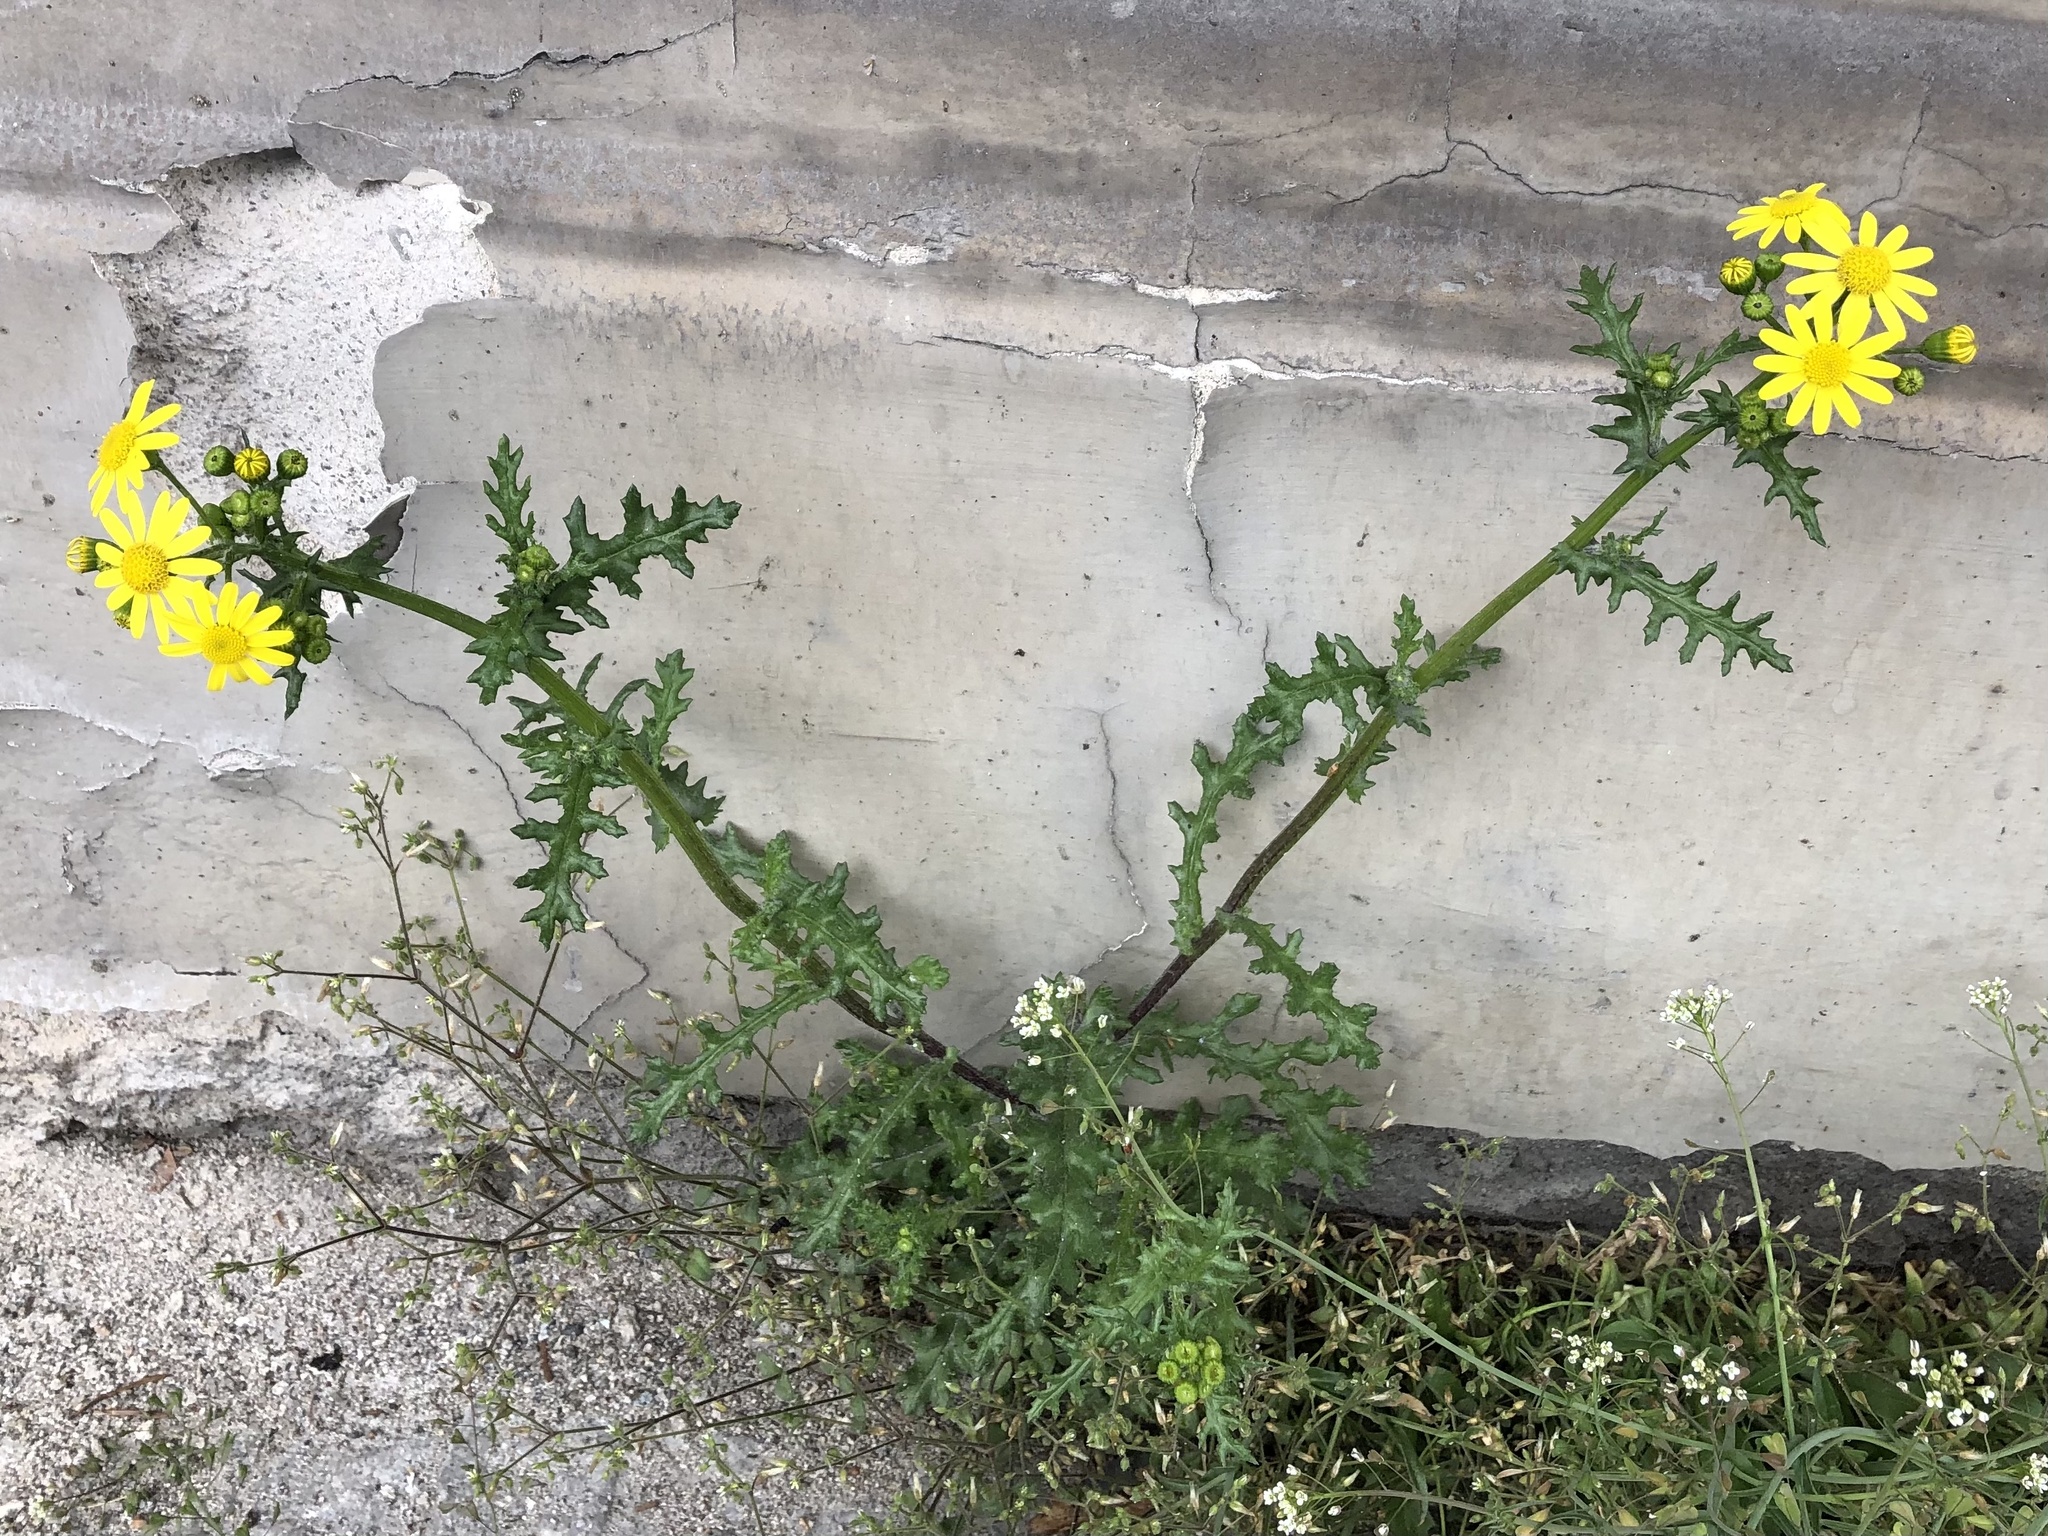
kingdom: Plantae
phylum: Tracheophyta
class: Magnoliopsida
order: Asterales
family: Asteraceae
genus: Senecio
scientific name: Senecio vernalis
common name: Eastern groundsel
